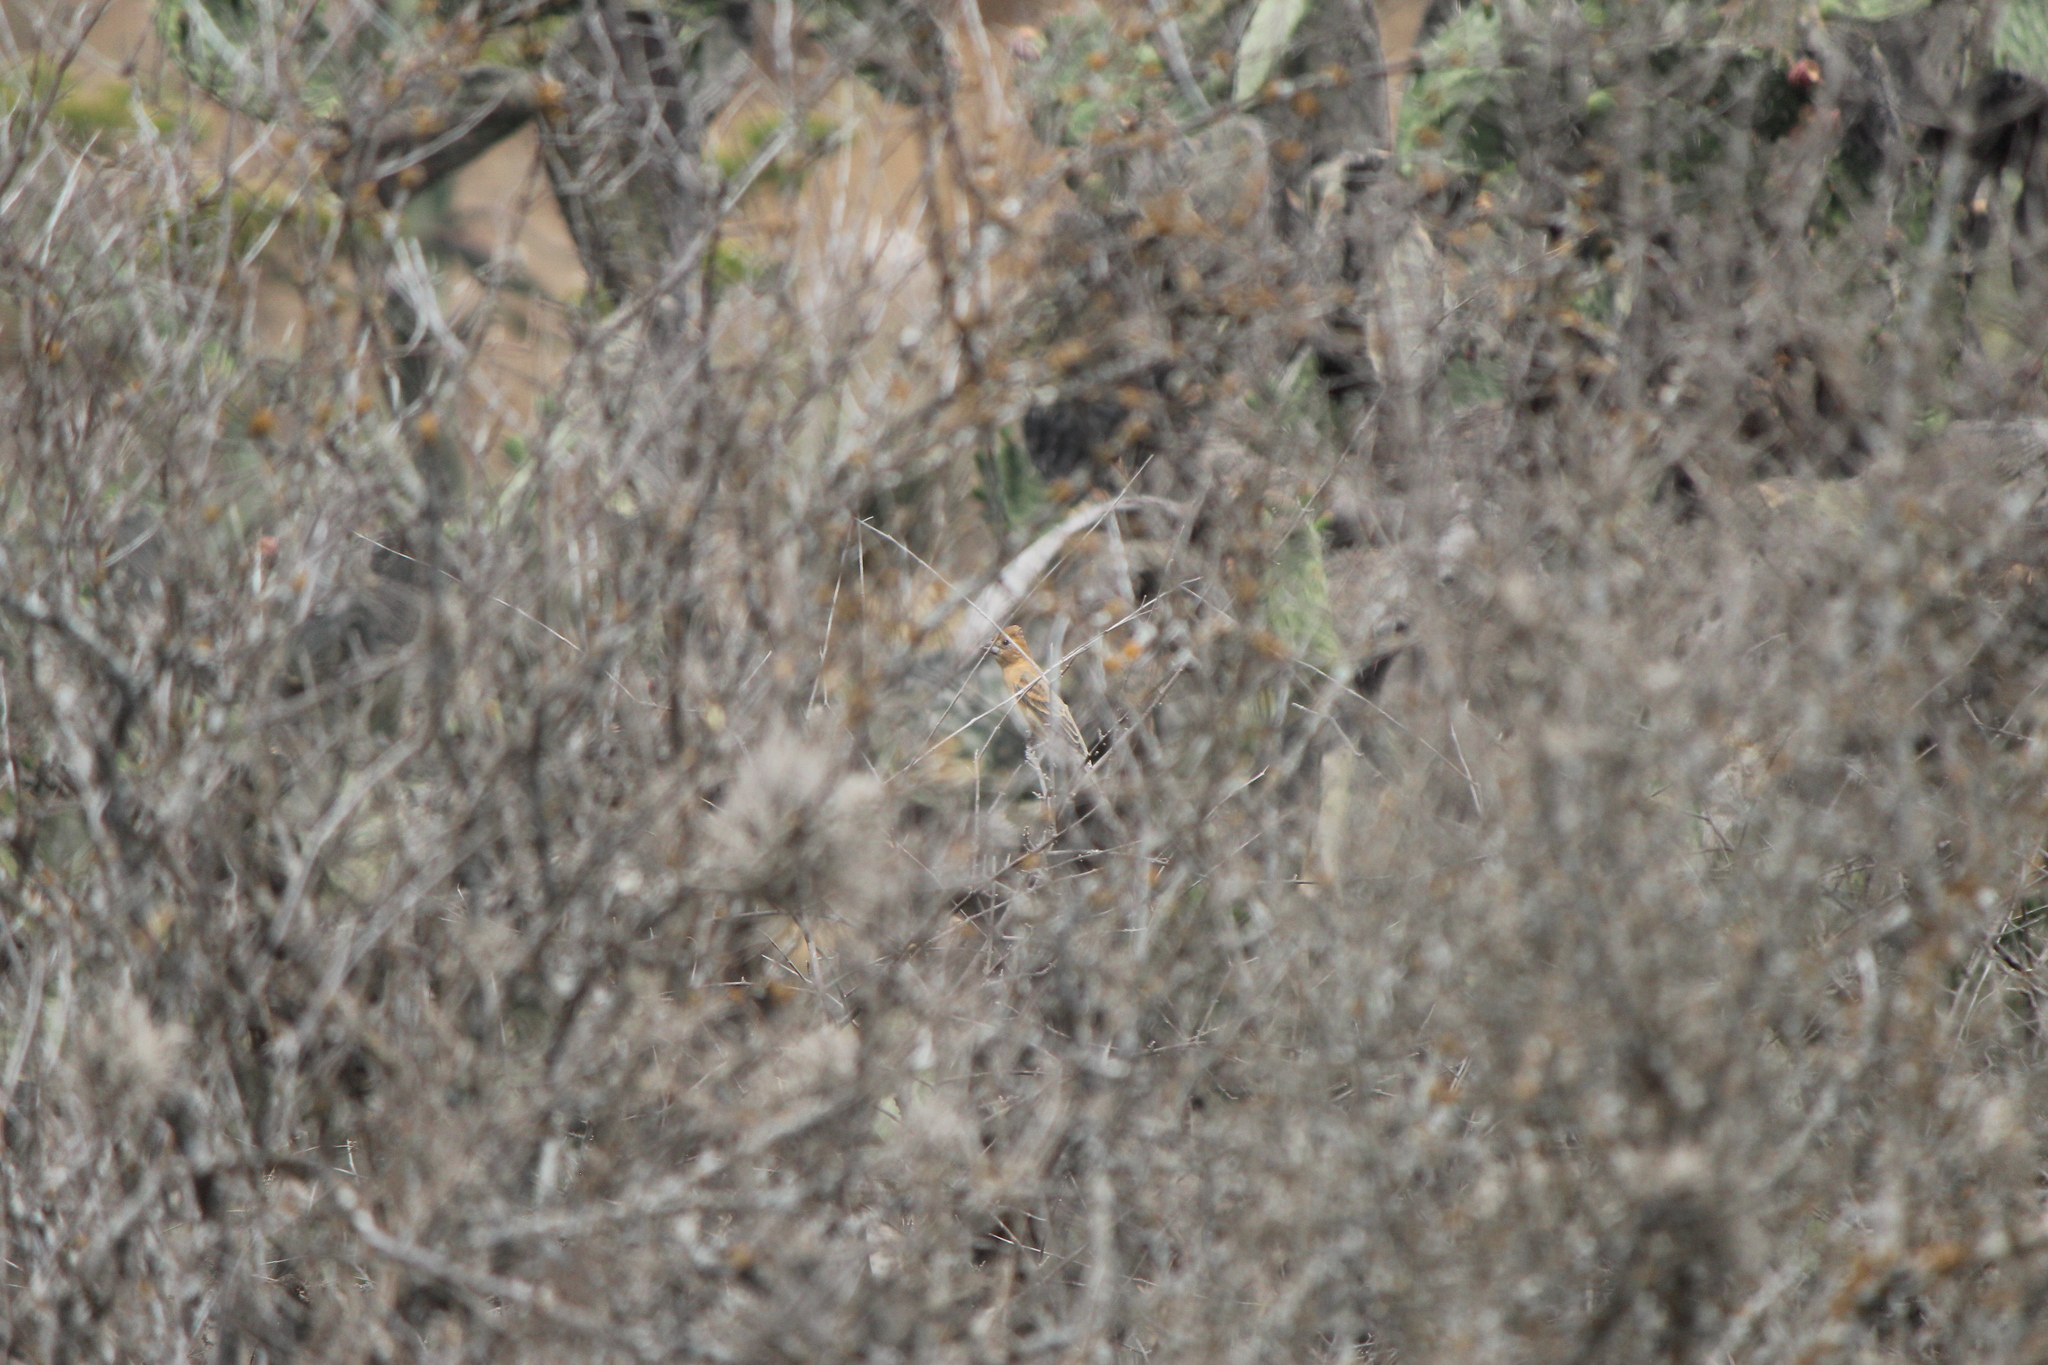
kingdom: Animalia
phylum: Chordata
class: Aves
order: Passeriformes
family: Cardinalidae
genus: Passerina
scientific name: Passerina caerulea
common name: Blue grosbeak
